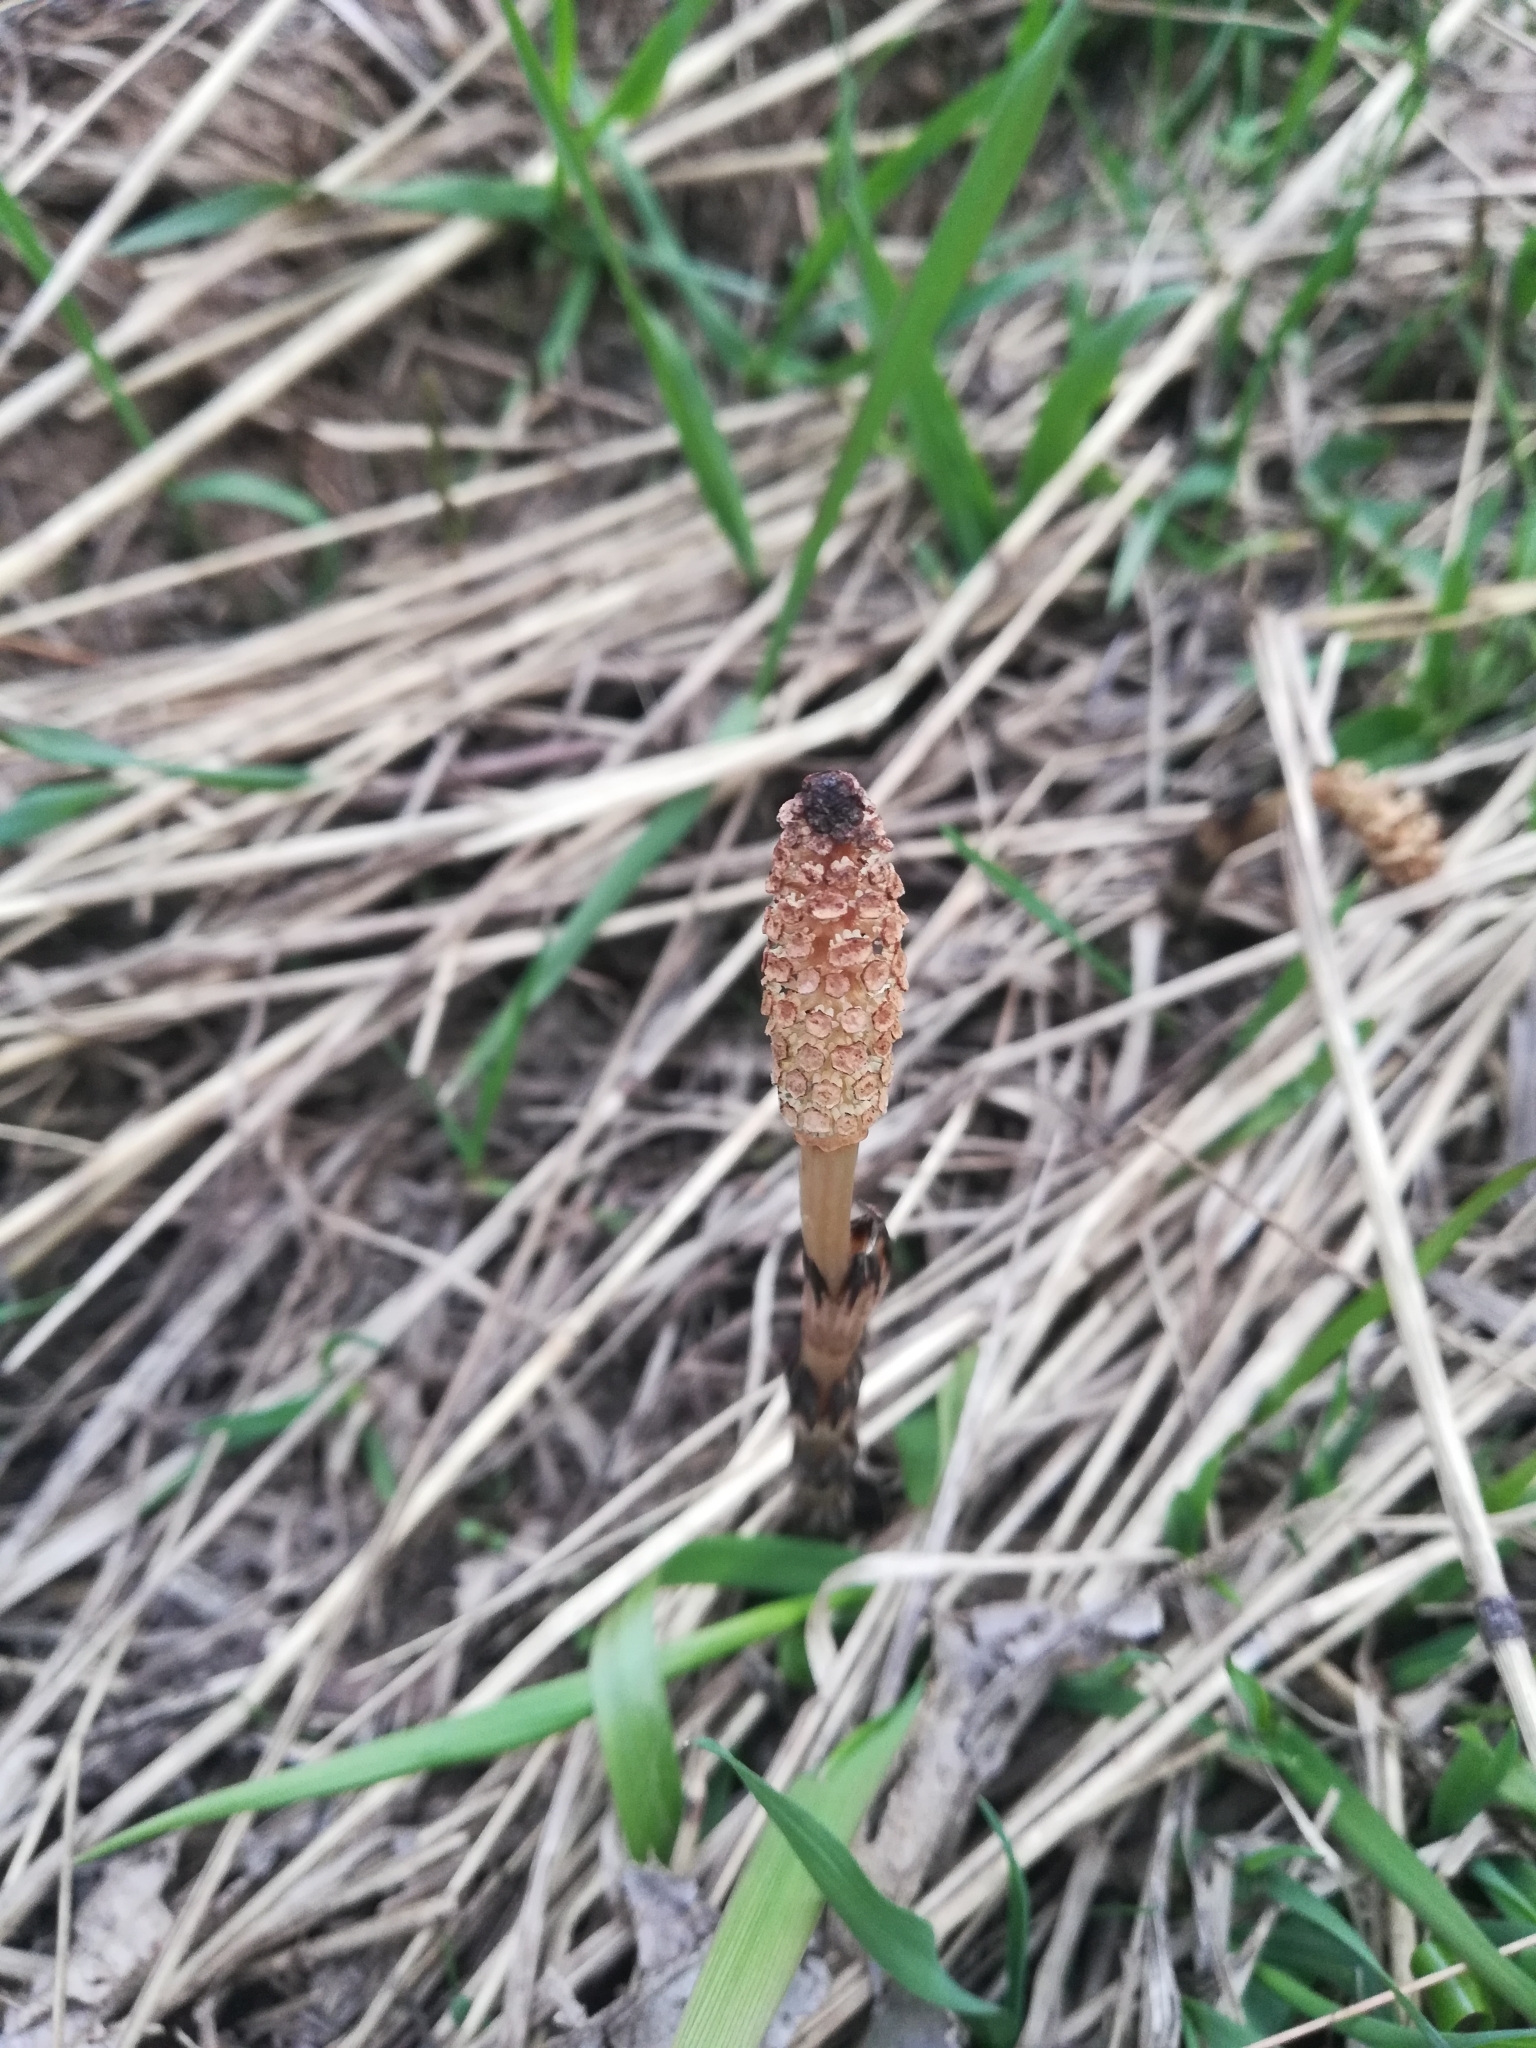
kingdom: Plantae
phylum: Tracheophyta
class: Polypodiopsida
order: Equisetales
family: Equisetaceae
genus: Equisetum
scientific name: Equisetum arvense
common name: Field horsetail
